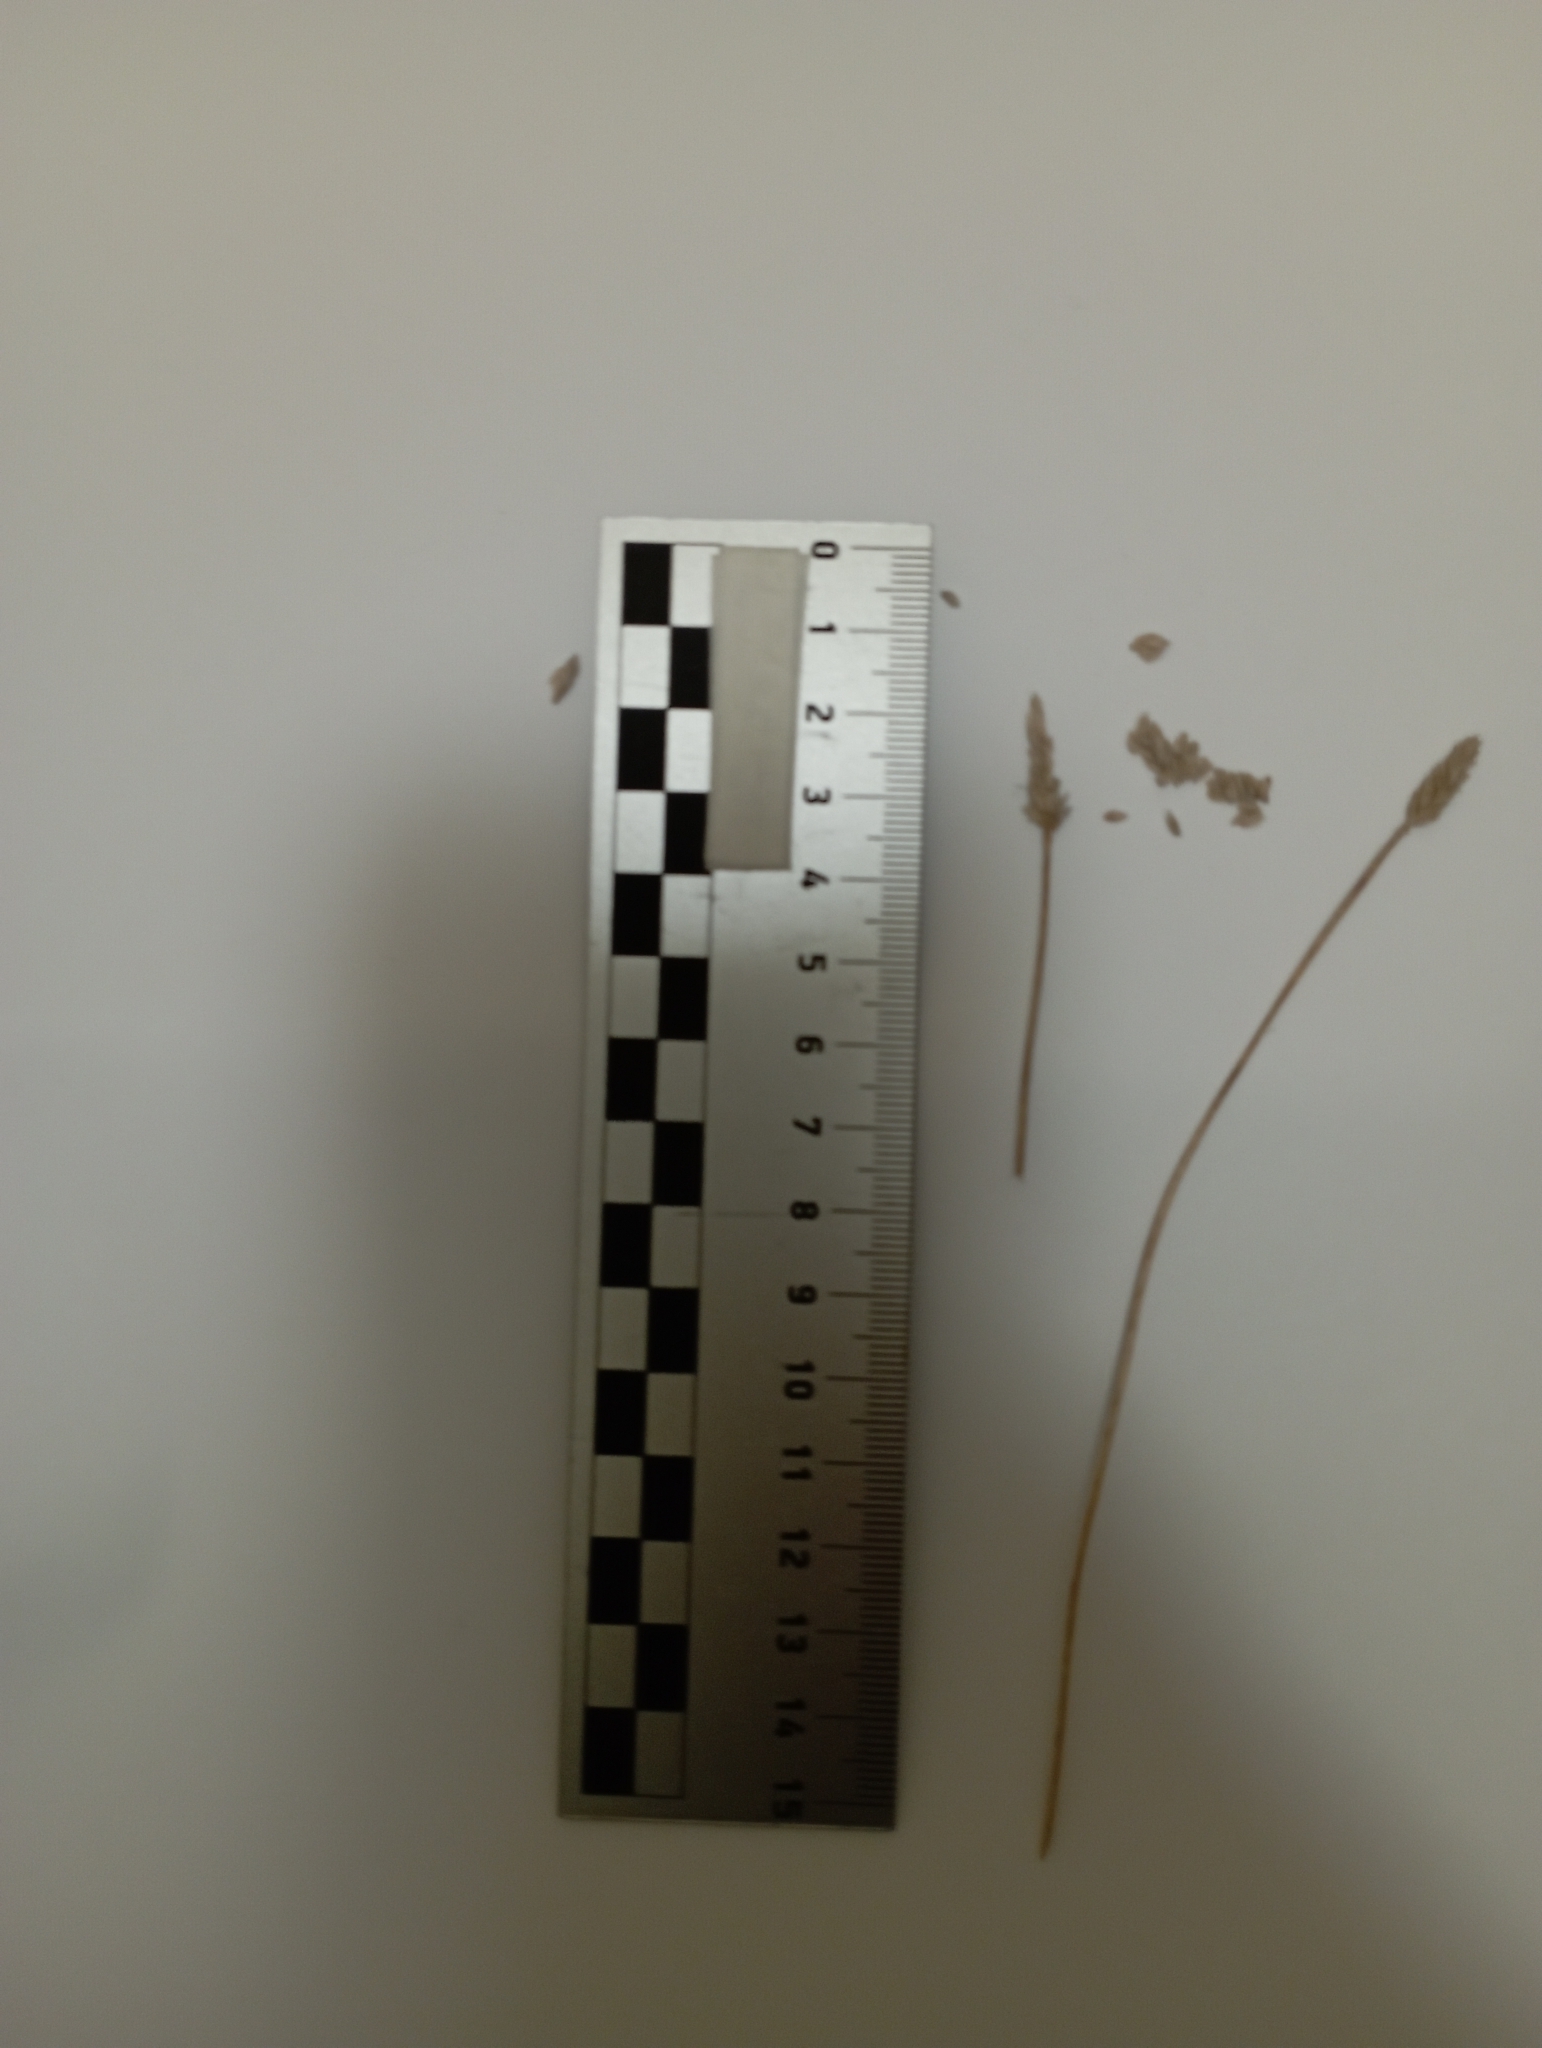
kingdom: Plantae
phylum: Tracheophyta
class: Liliopsida
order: Poales
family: Poaceae
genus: Alopecurus
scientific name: Alopecurus magellanicus
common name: Alpine foxtail
